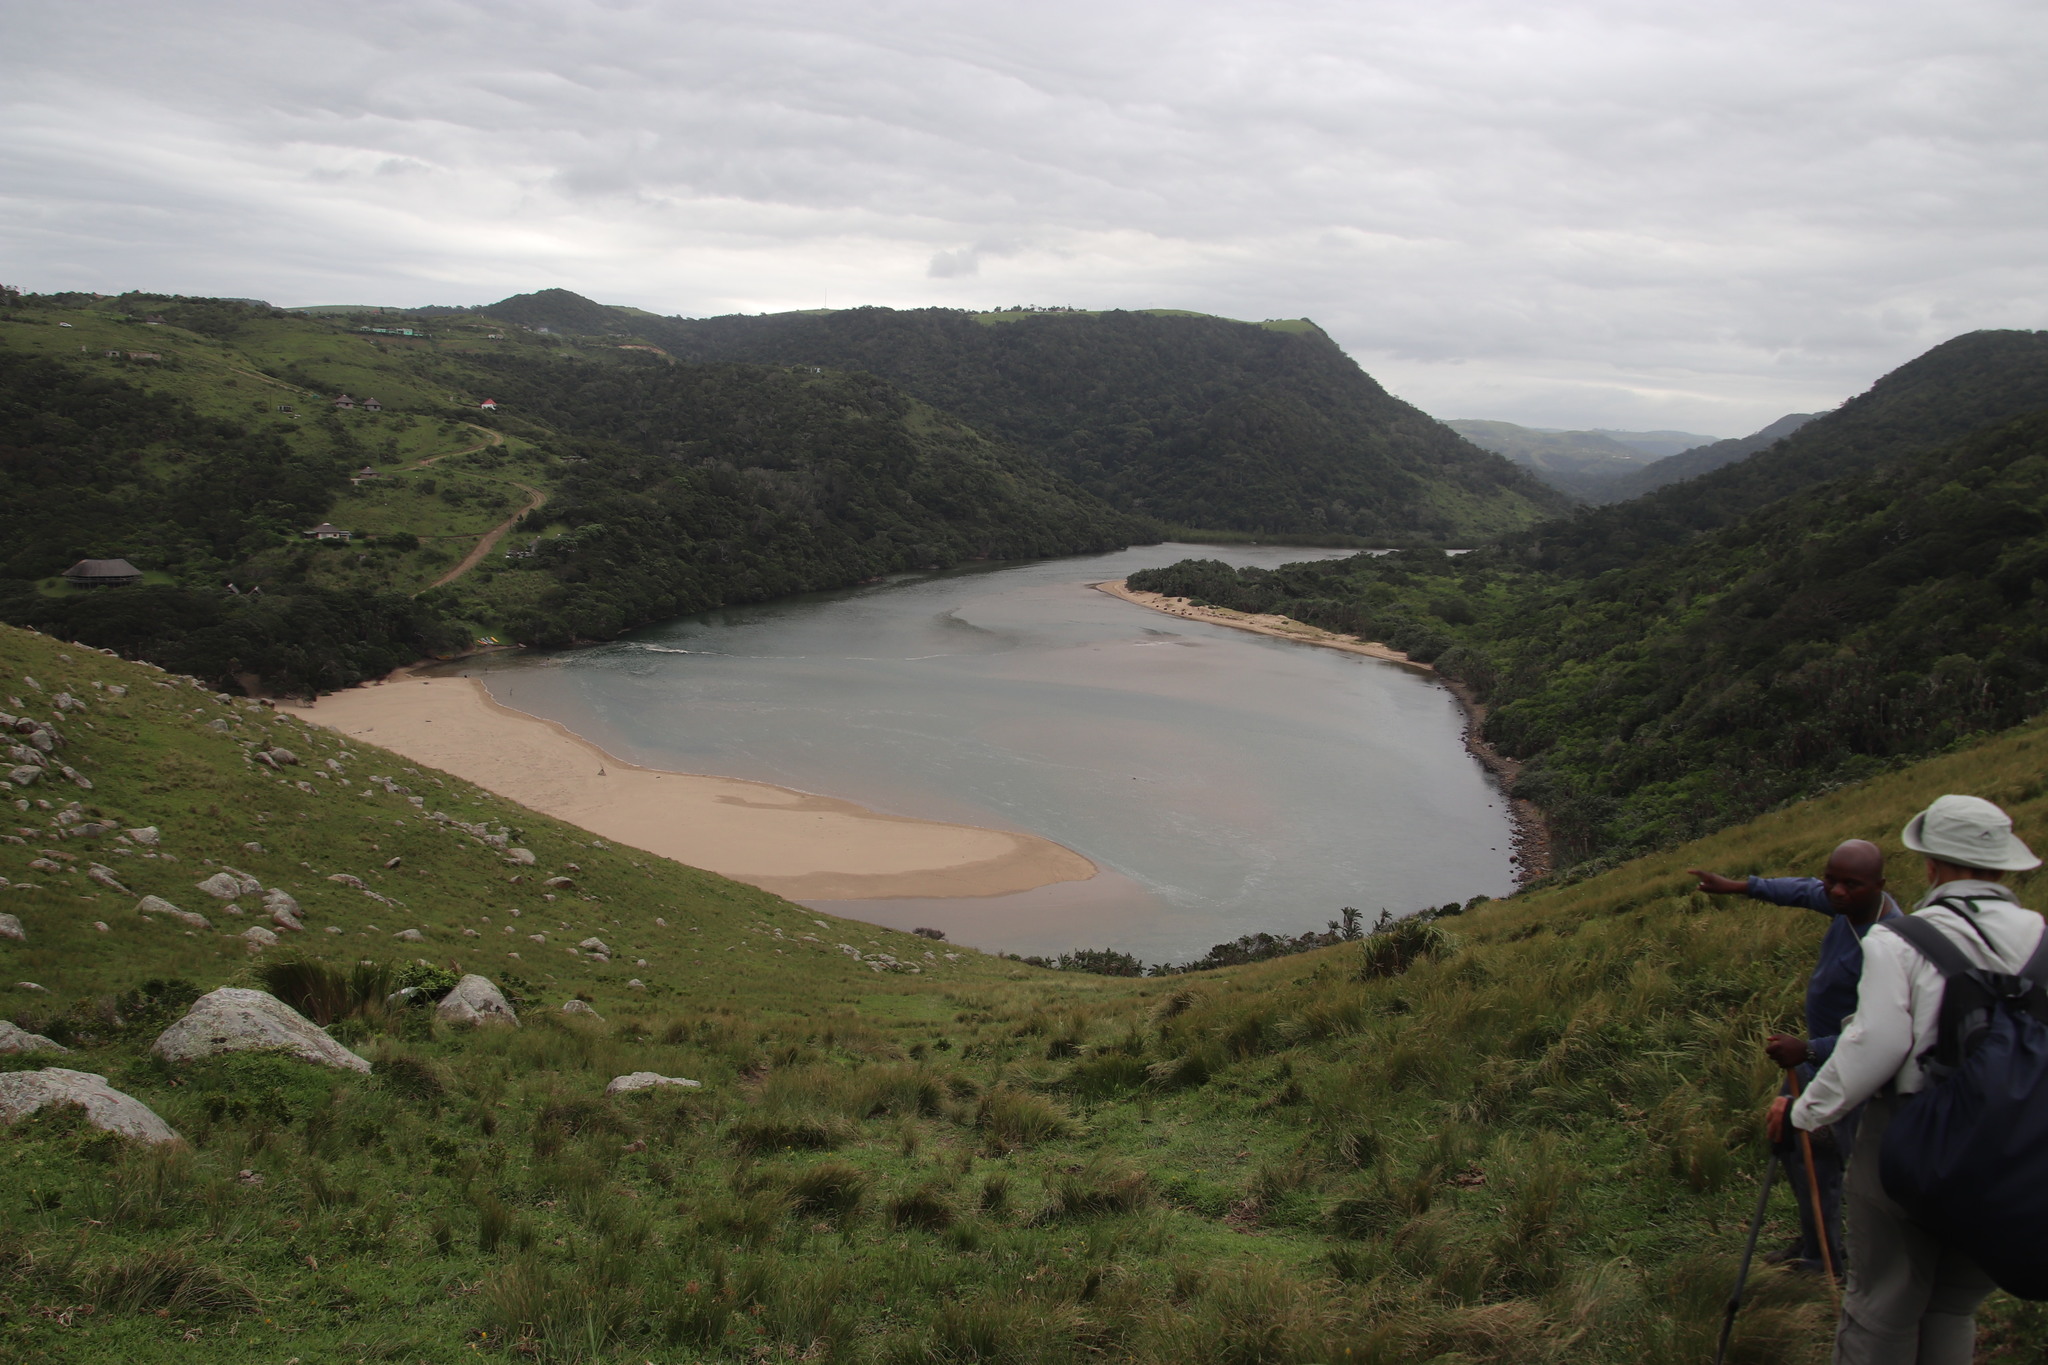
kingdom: Plantae
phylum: Tracheophyta
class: Liliopsida
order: Poales
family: Poaceae
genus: Stenotaphrum
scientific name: Stenotaphrum secundatum
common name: St. augustine grass
